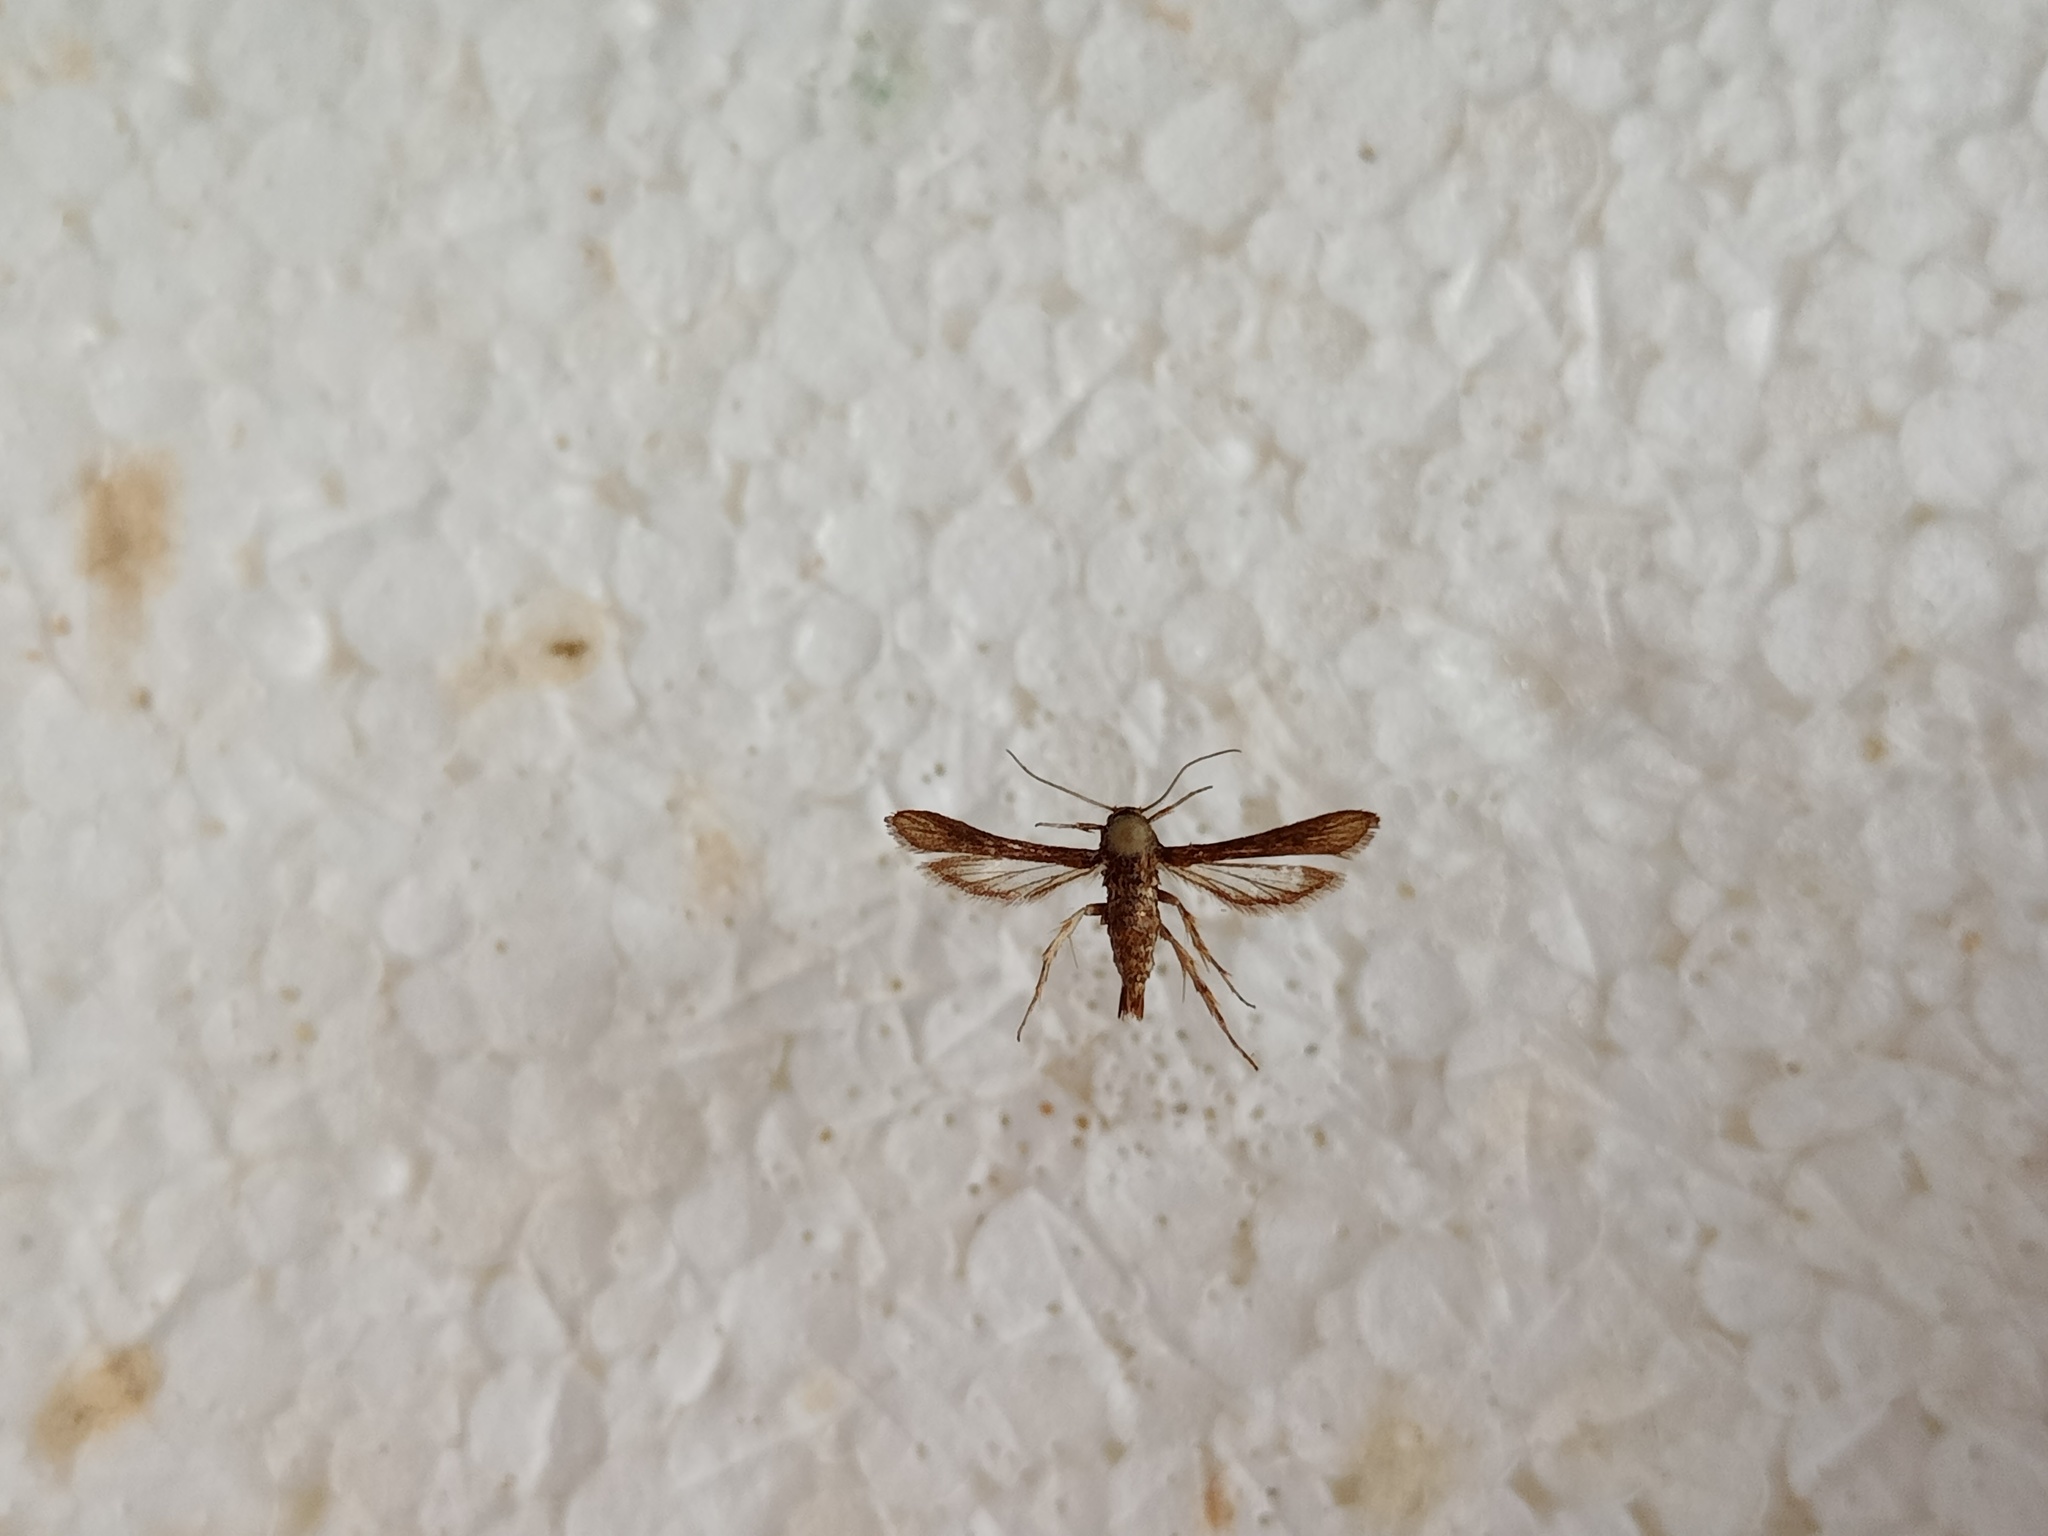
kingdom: Animalia
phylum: Arthropoda
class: Insecta
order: Lepidoptera
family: Sesiidae
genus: Microsphecia
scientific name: Microsphecia tineiformis
